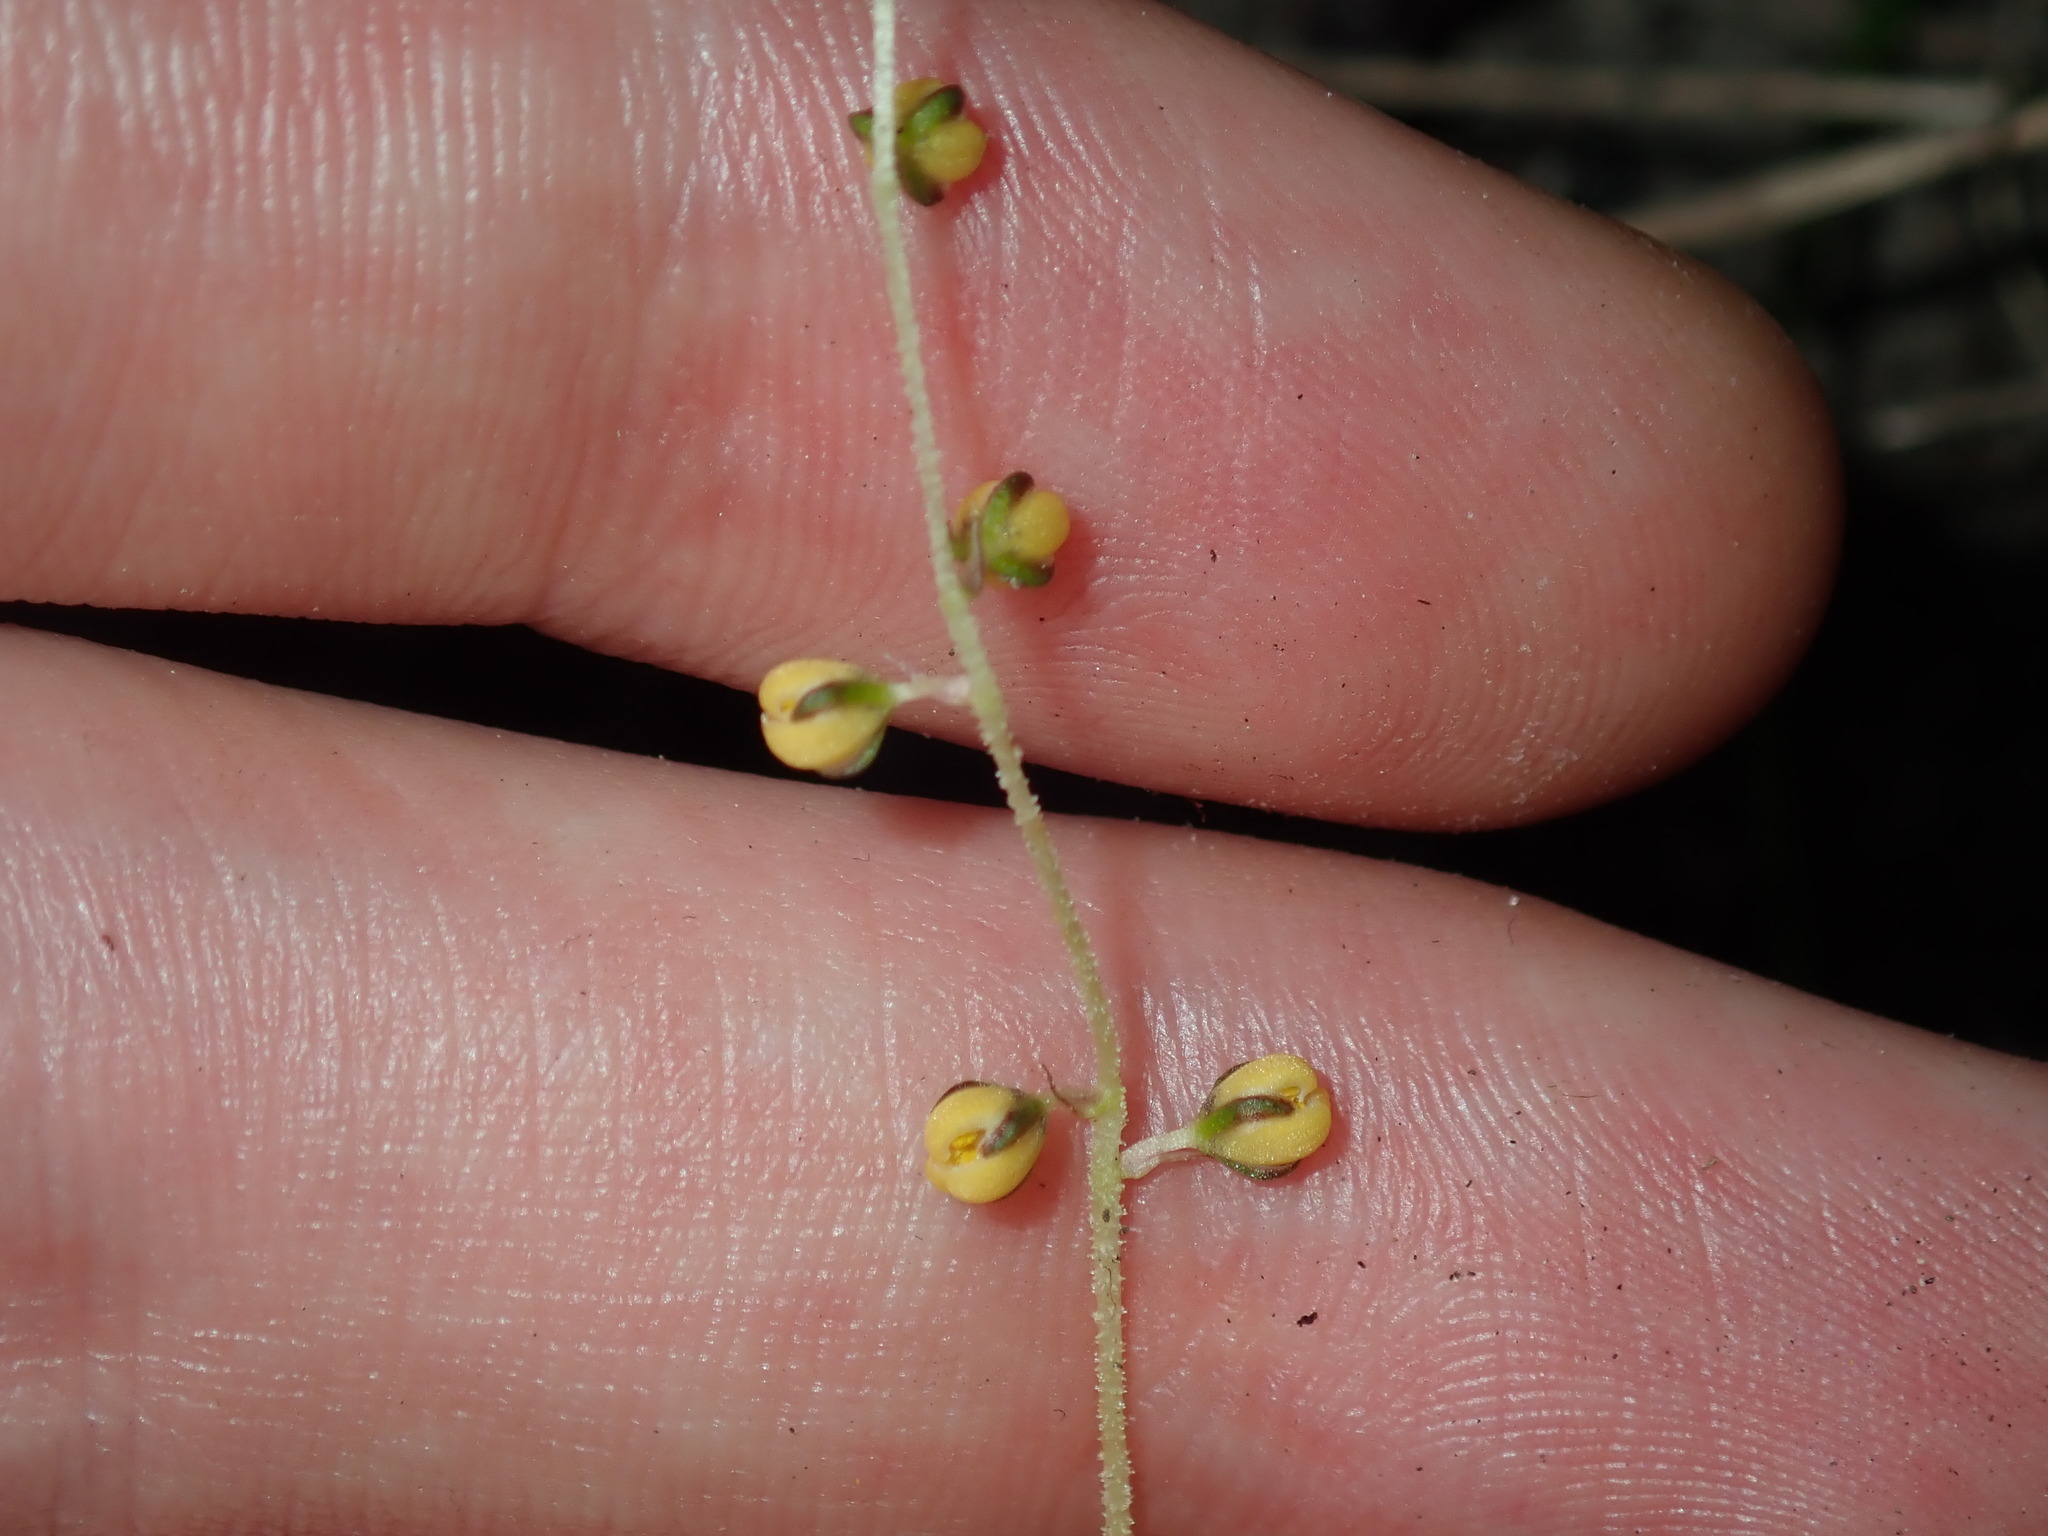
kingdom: Plantae
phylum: Tracheophyta
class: Liliopsida
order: Asparagales
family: Asparagaceae
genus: Lomandra
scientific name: Lomandra filiformis
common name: Wattle mat-rush
